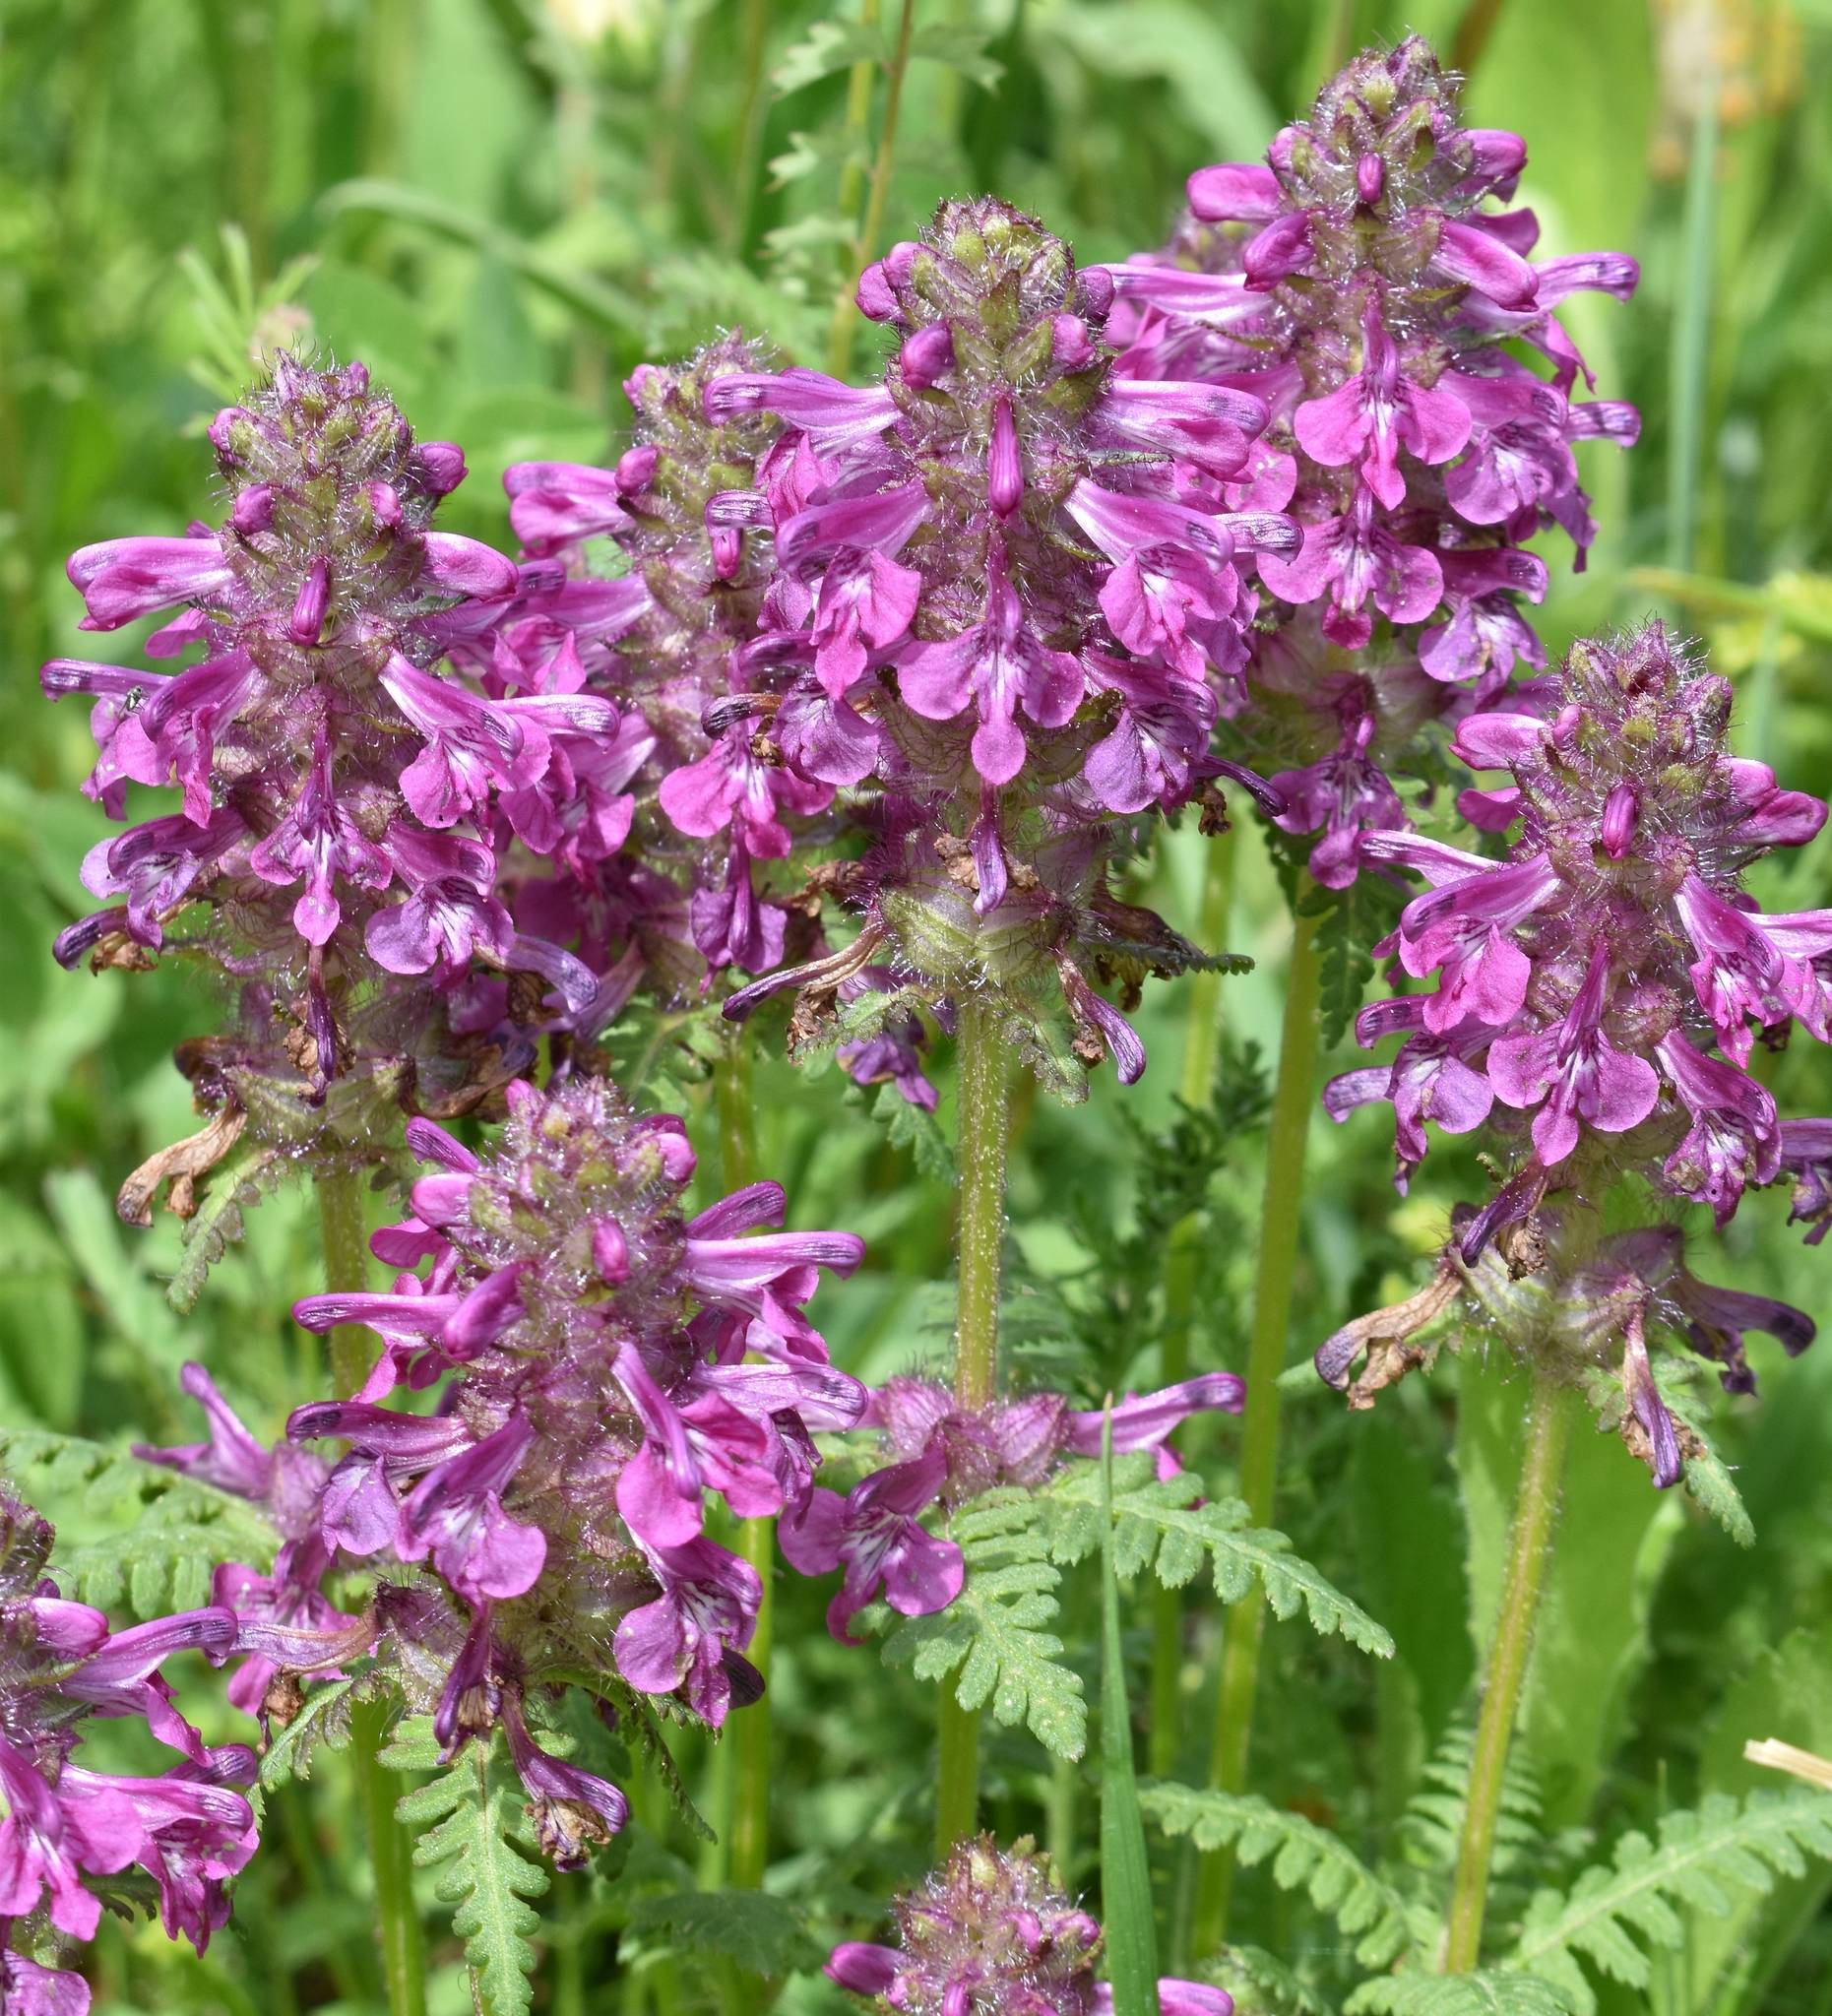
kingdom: Plantae
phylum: Tracheophyta
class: Magnoliopsida
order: Lamiales
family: Orobanchaceae
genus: Pedicularis
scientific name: Pedicularis verticillata
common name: Whorled lousewort
